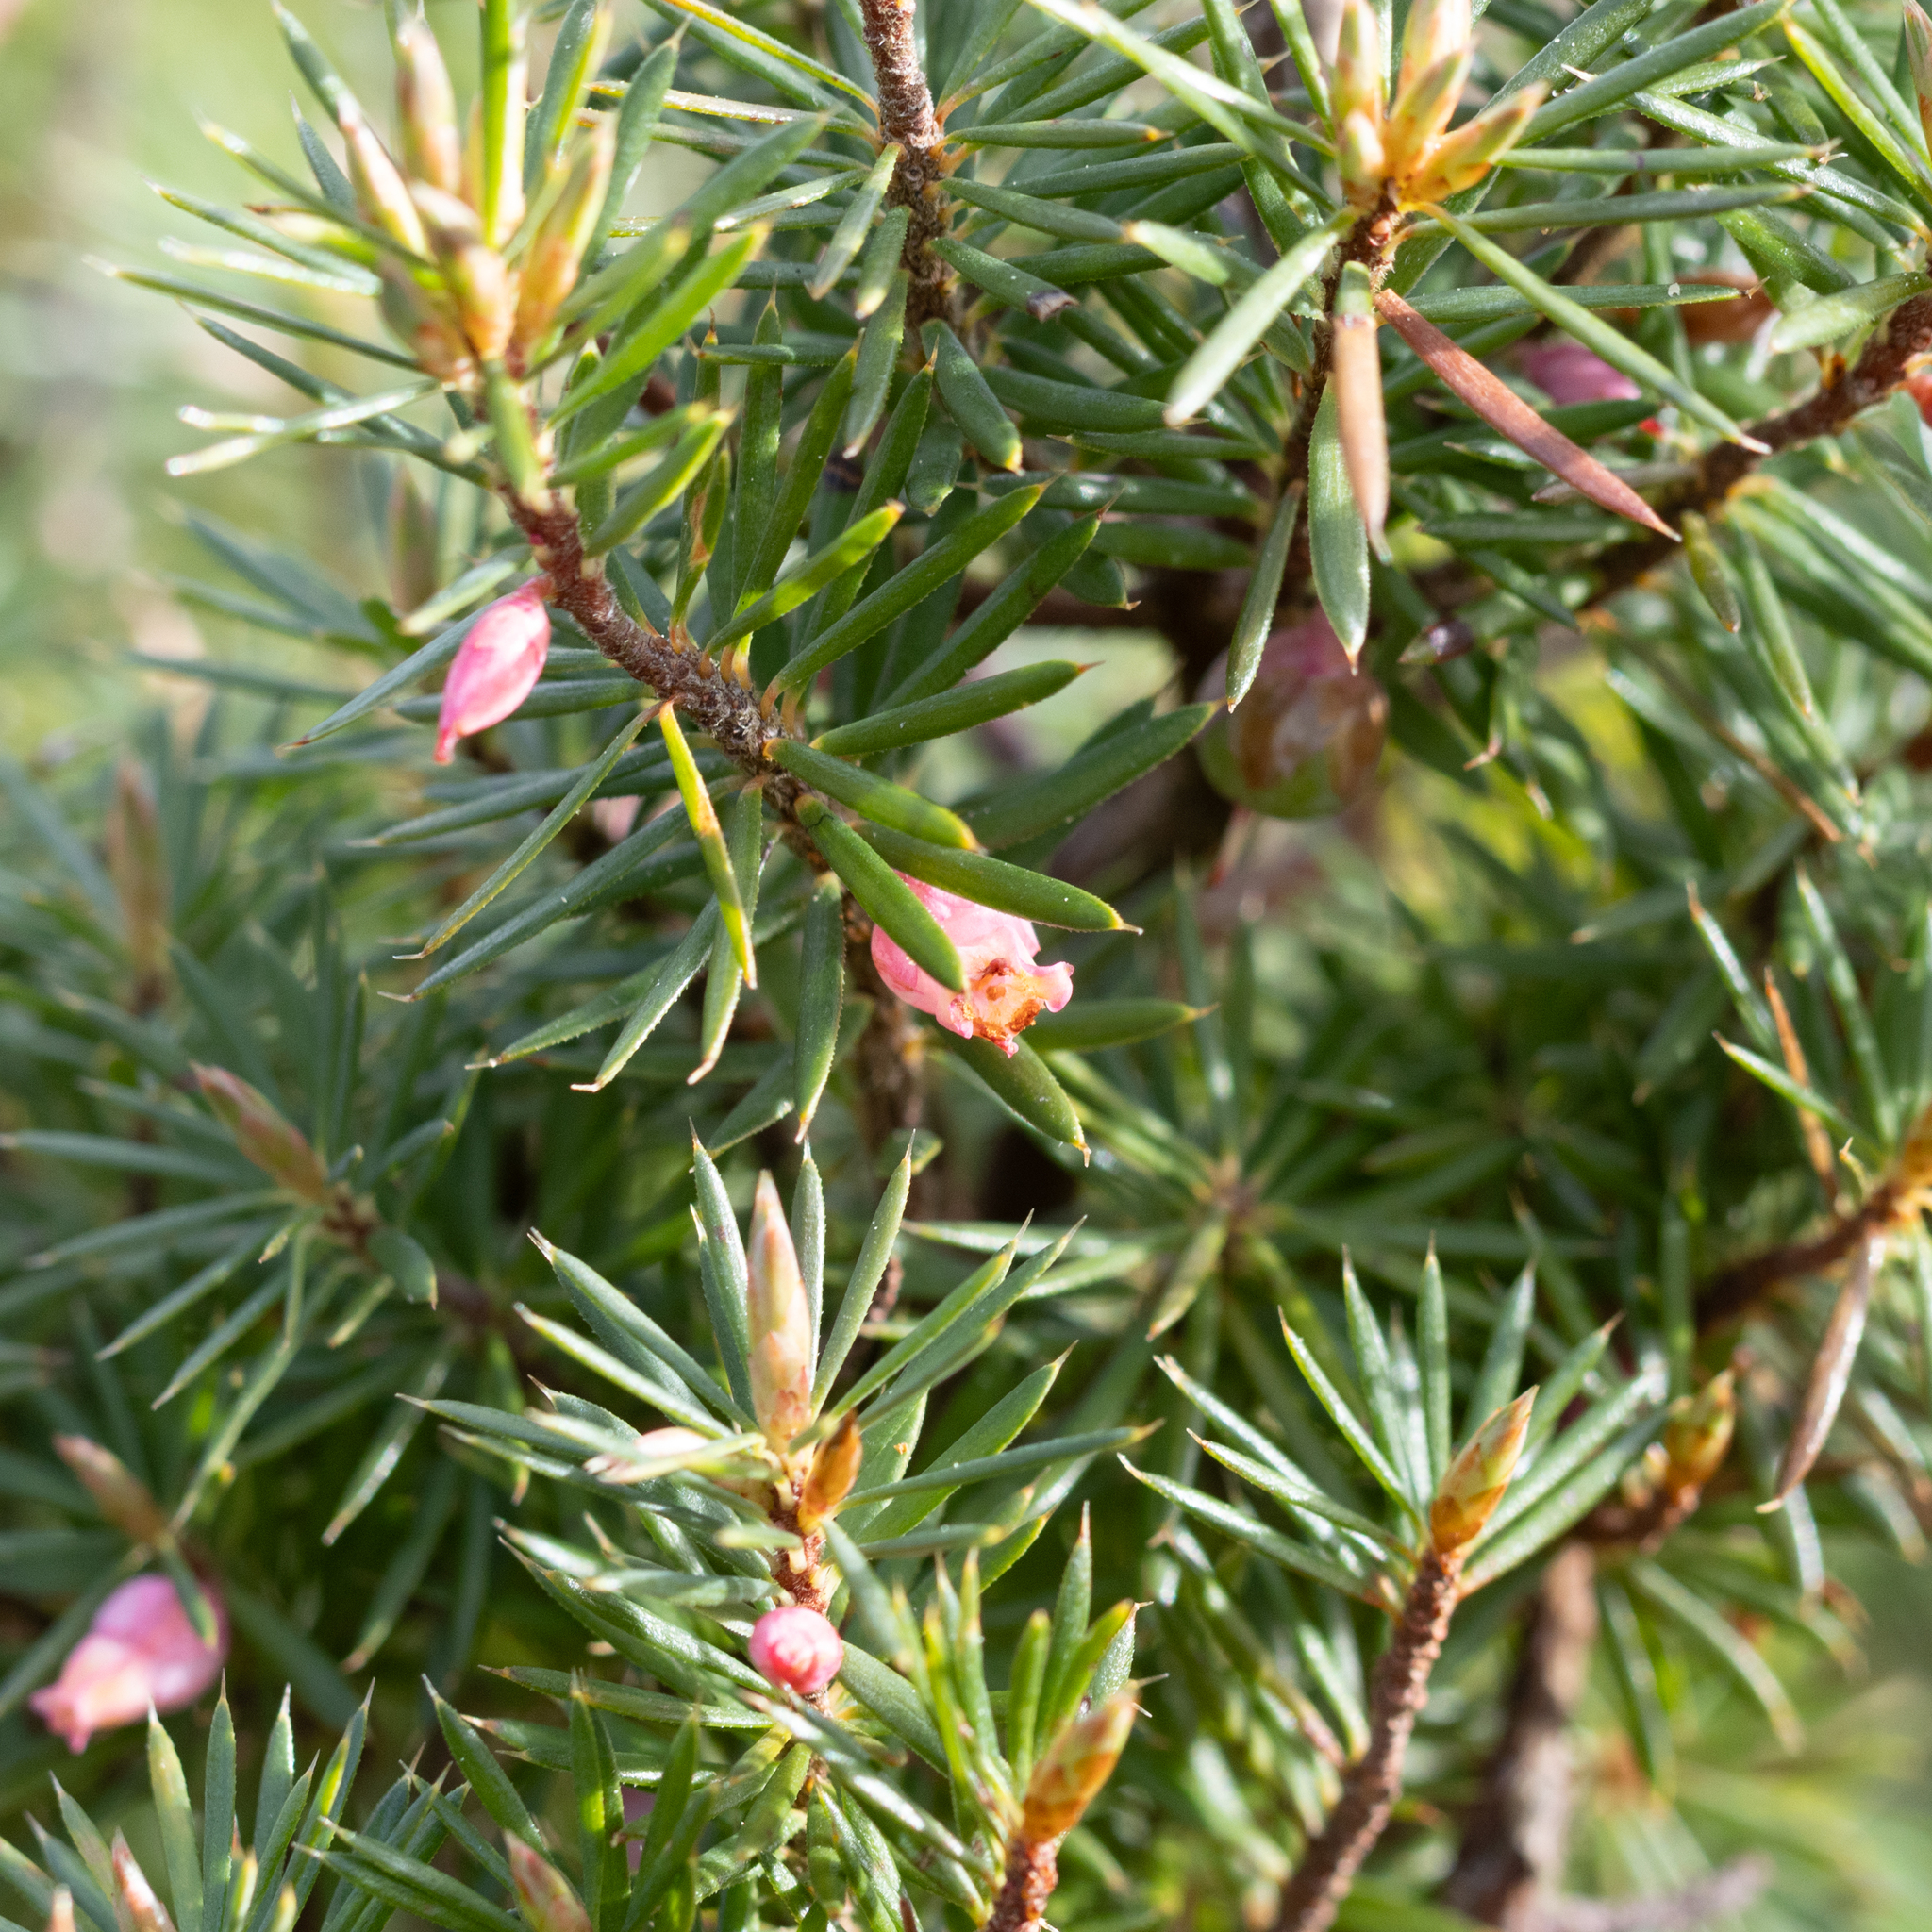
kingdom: Plantae
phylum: Tracheophyta
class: Magnoliopsida
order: Ericales
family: Ericaceae
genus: Brachyloma
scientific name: Brachyloma ericoides
